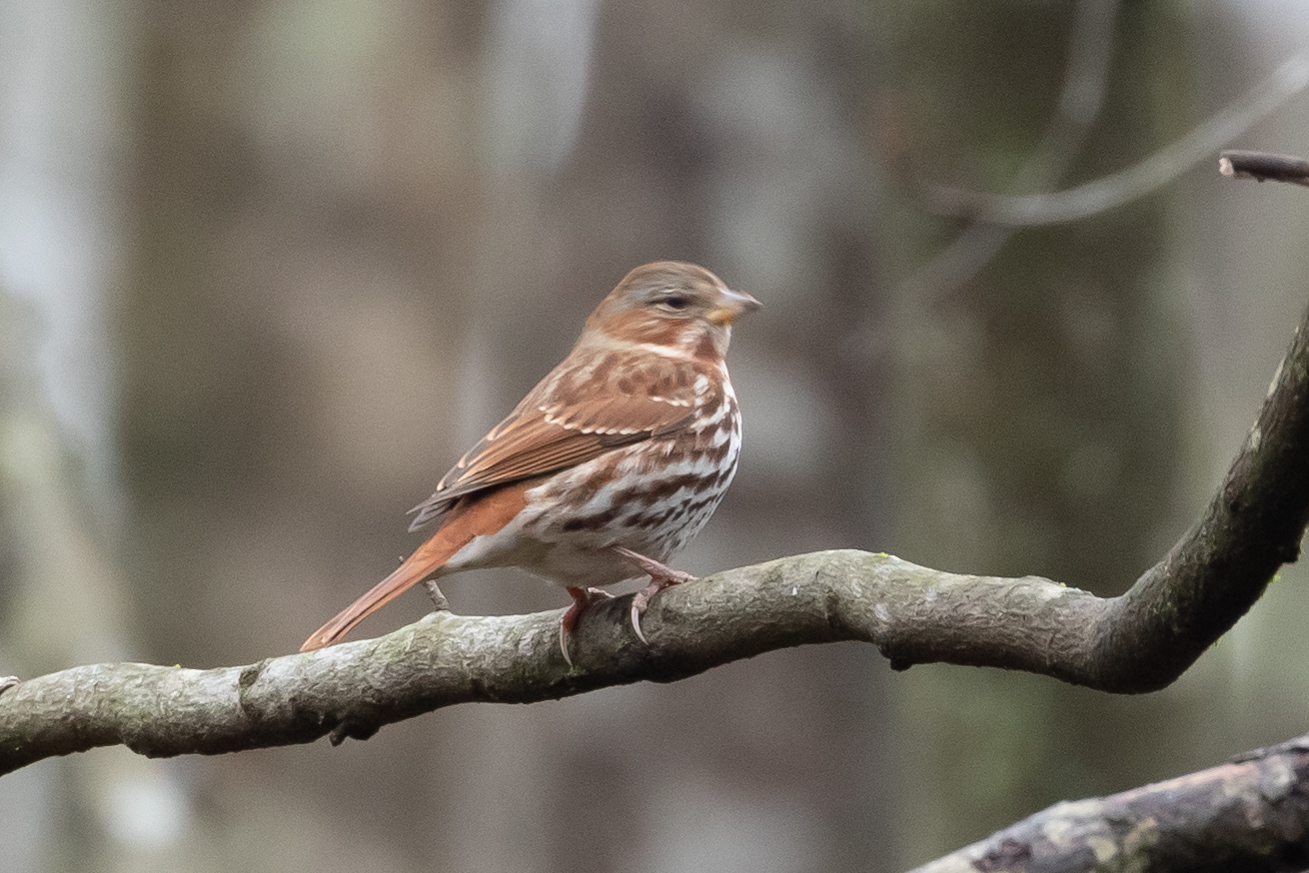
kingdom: Animalia
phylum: Chordata
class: Aves
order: Passeriformes
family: Passerellidae
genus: Passerella
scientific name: Passerella iliaca
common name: Fox sparrow
